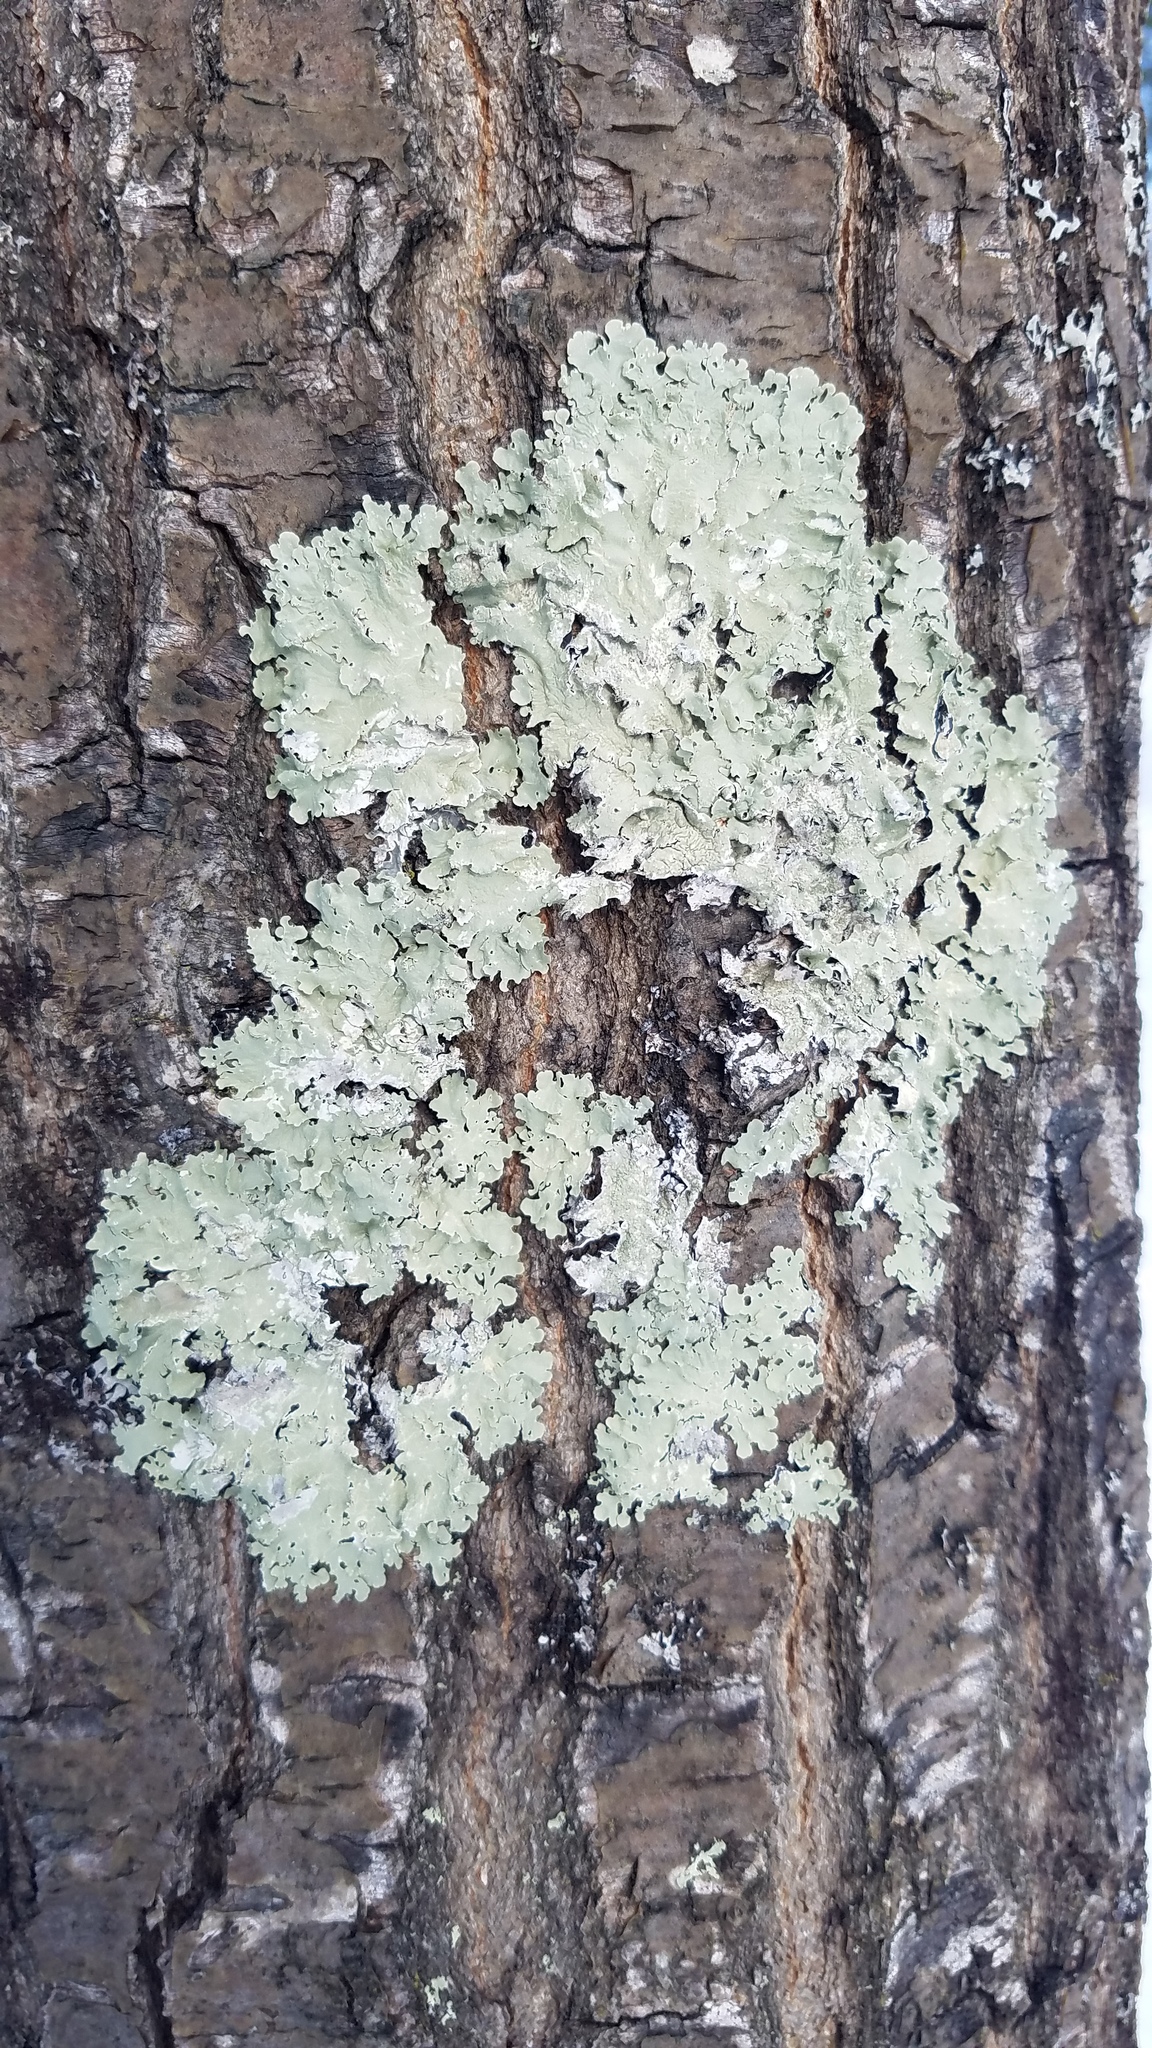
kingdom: Fungi
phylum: Ascomycota
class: Lecanoromycetes
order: Lecanorales
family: Parmeliaceae
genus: Flavoparmelia
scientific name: Flavoparmelia caperata
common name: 40-mile per hour lichen
